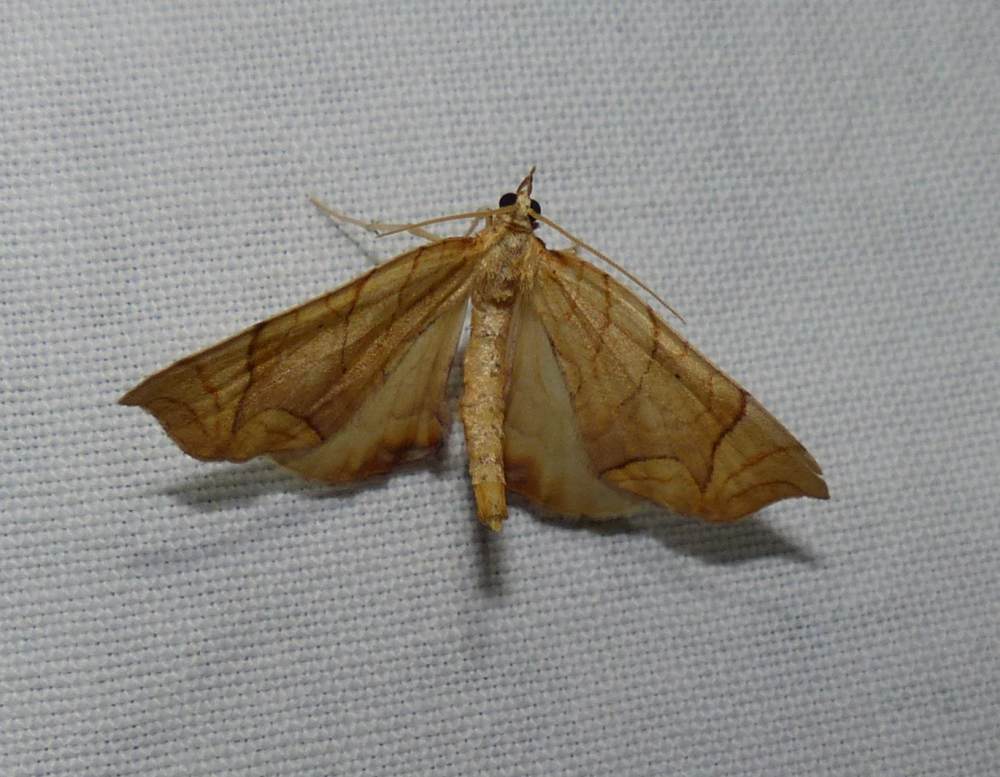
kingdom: Animalia
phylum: Arthropoda
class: Insecta
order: Lepidoptera
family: Geometridae
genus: Eulithis
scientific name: Eulithis
